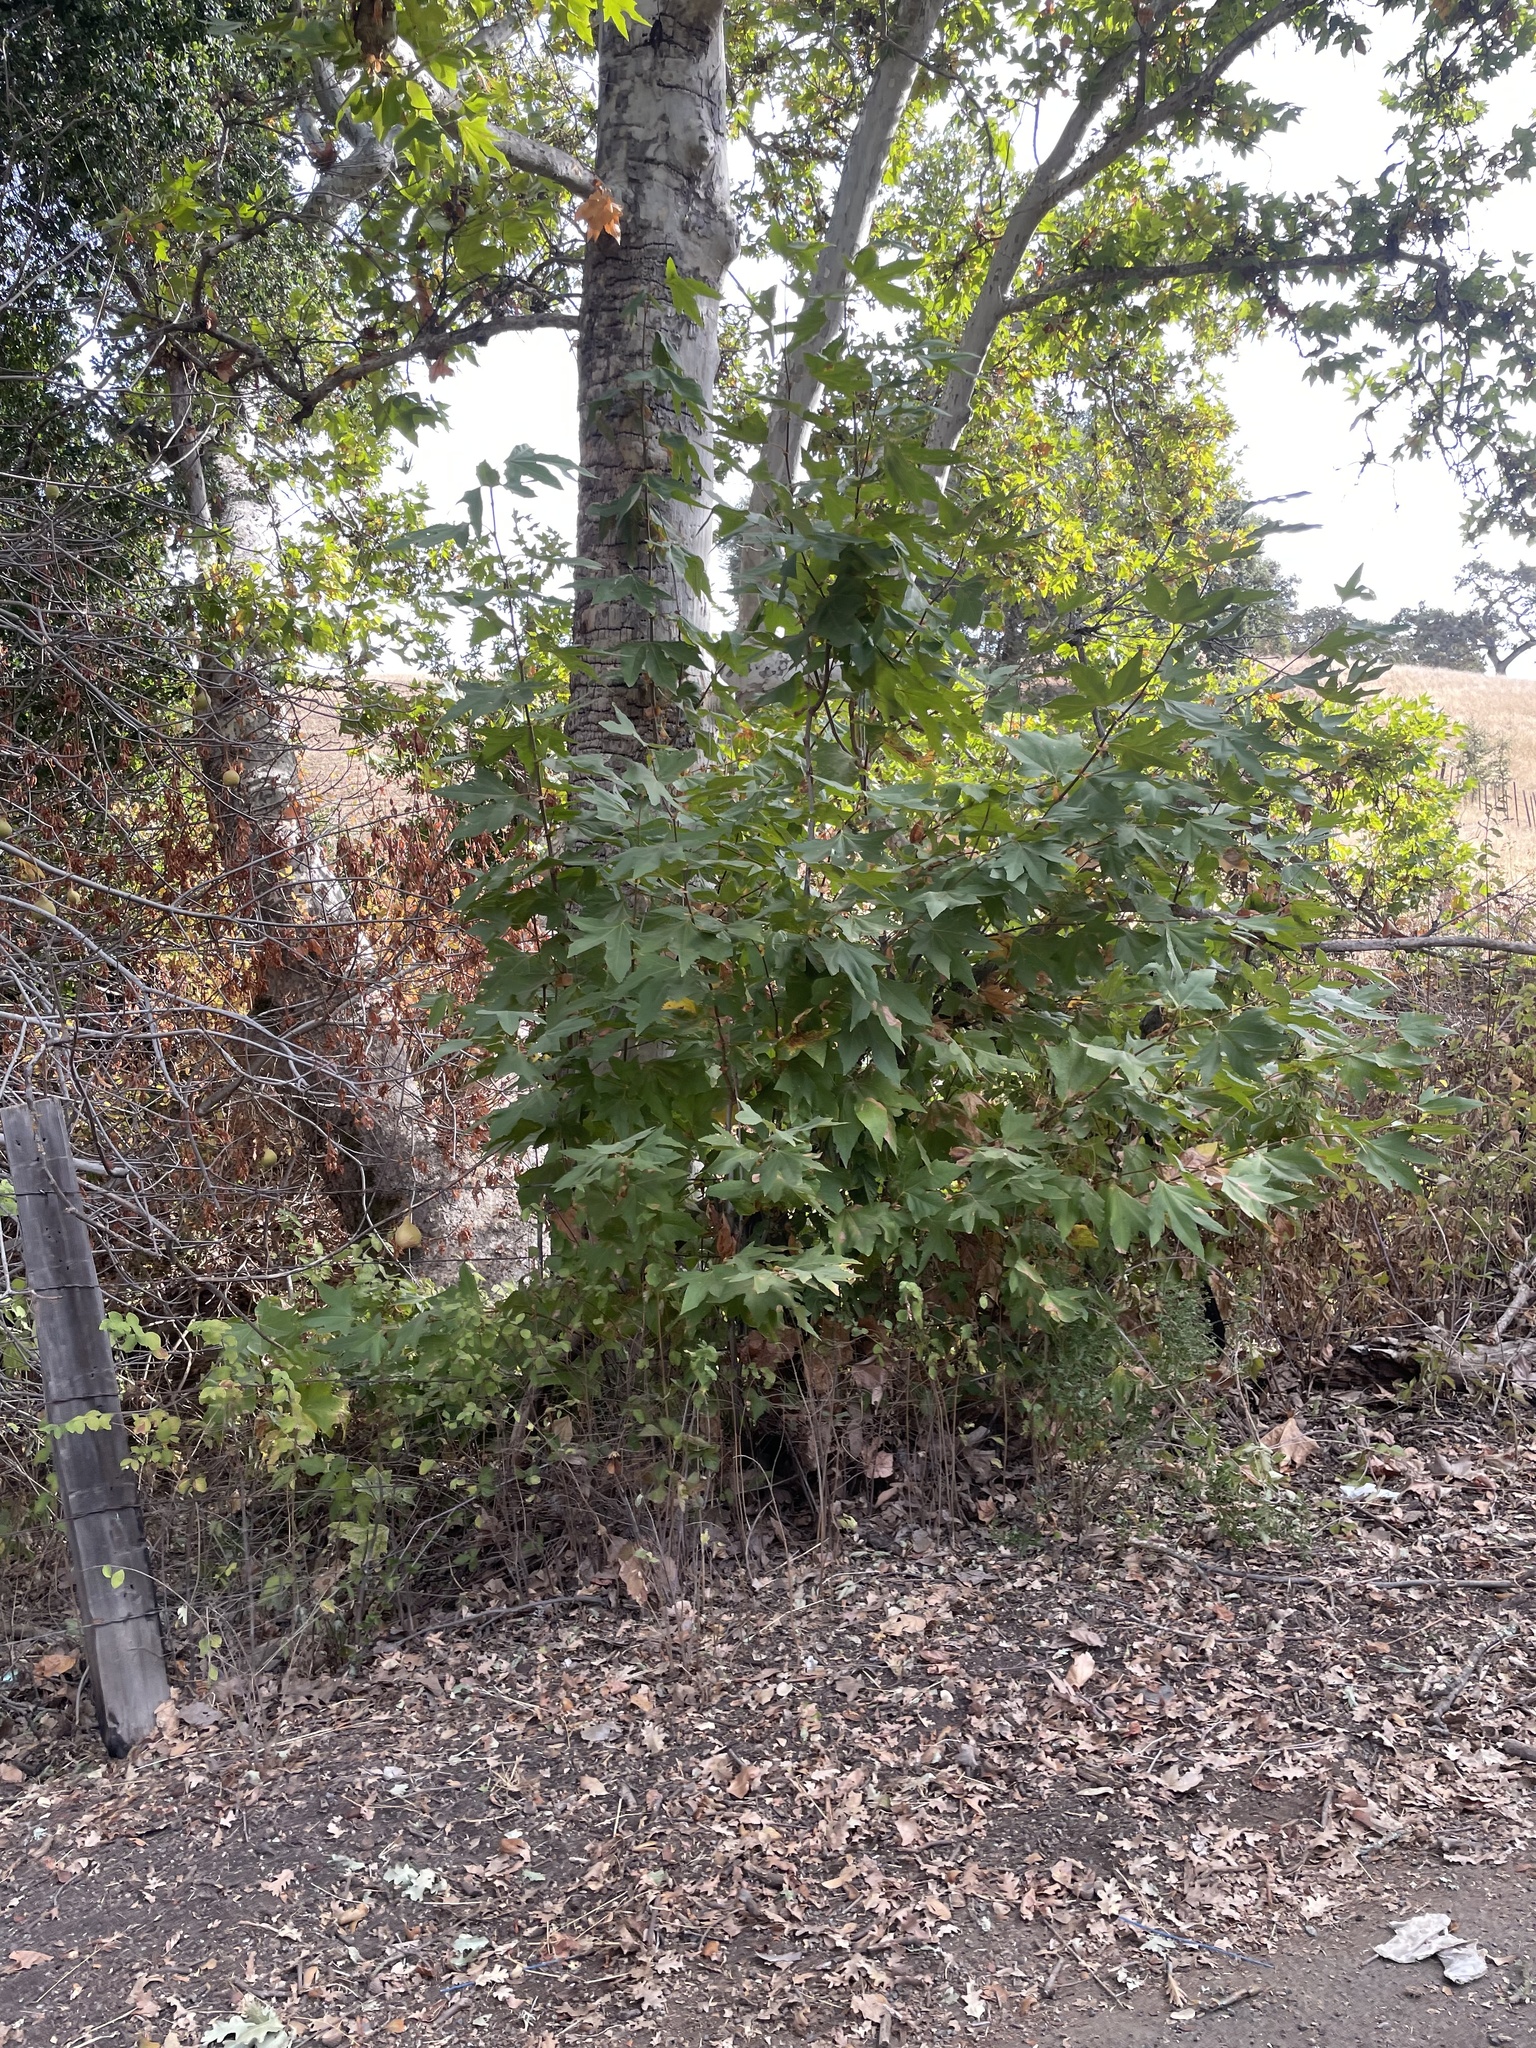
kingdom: Plantae
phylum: Tracheophyta
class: Magnoliopsida
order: Proteales
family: Platanaceae
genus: Platanus
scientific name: Platanus racemosa
